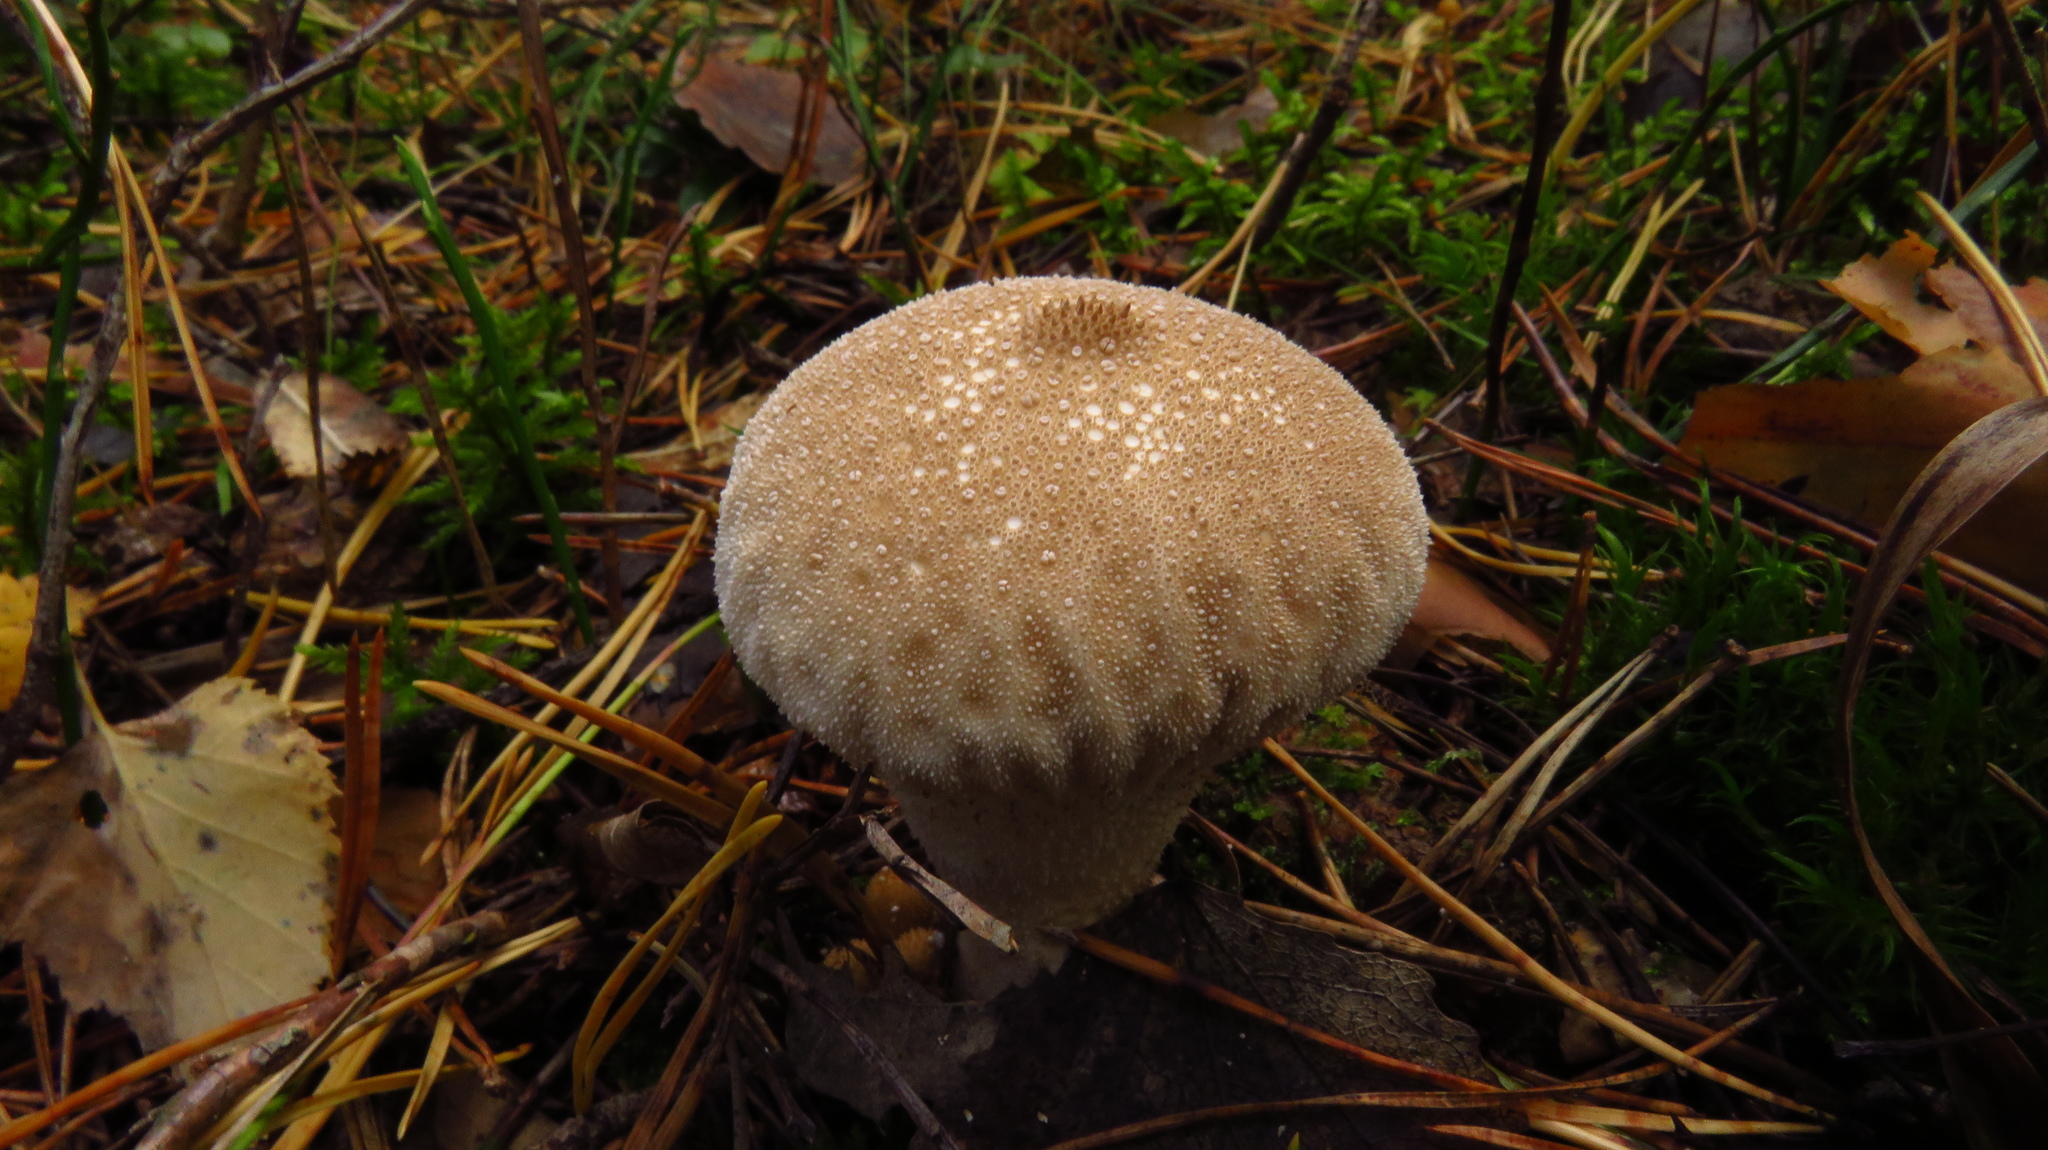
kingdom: Fungi
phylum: Basidiomycota
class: Agaricomycetes
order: Agaricales
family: Lycoperdaceae
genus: Lycoperdon
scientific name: Lycoperdon perlatum
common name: Common puffball
